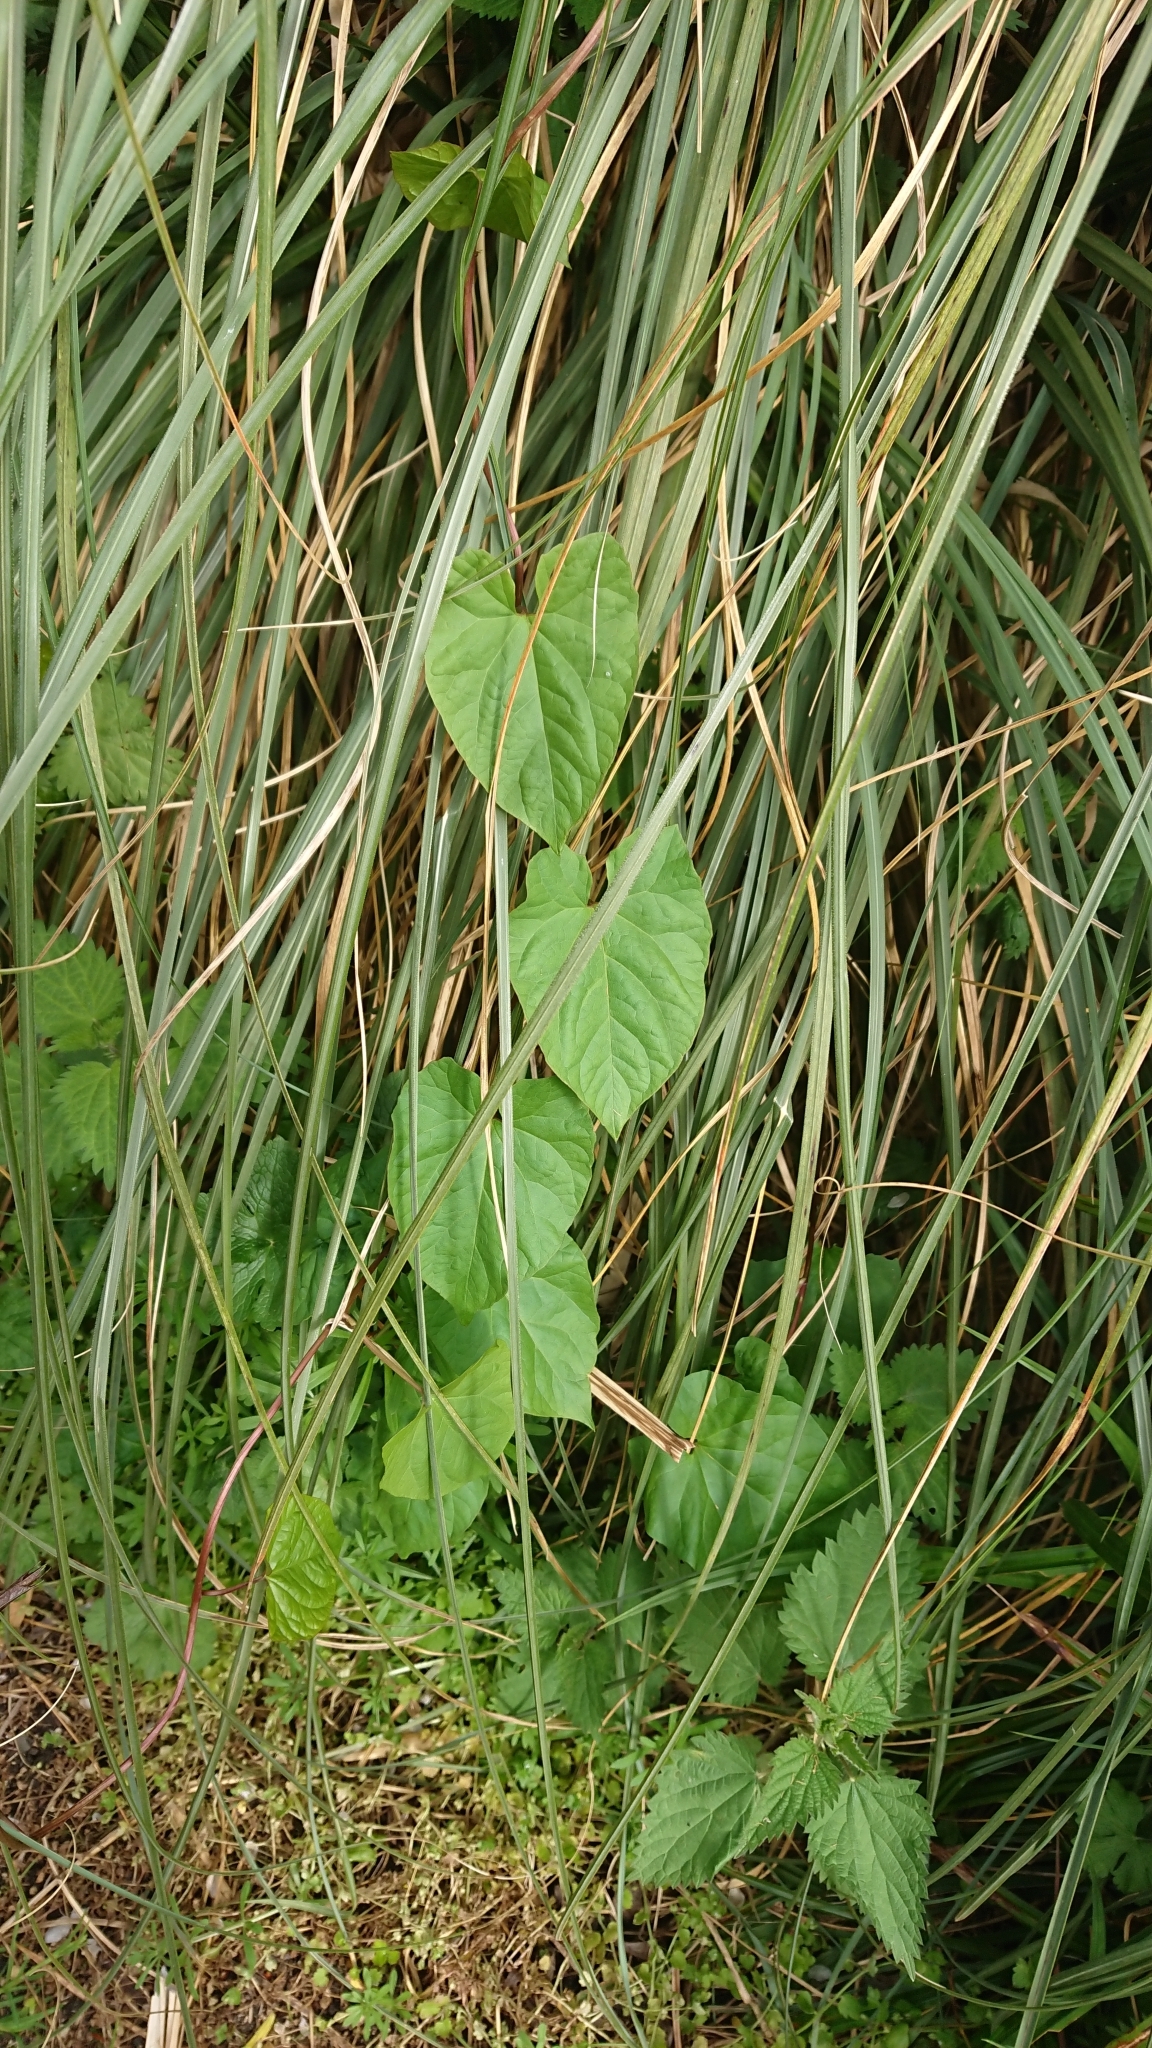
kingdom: Plantae
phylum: Tracheophyta
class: Magnoliopsida
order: Solanales
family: Convolvulaceae
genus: Calystegia
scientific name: Calystegia
